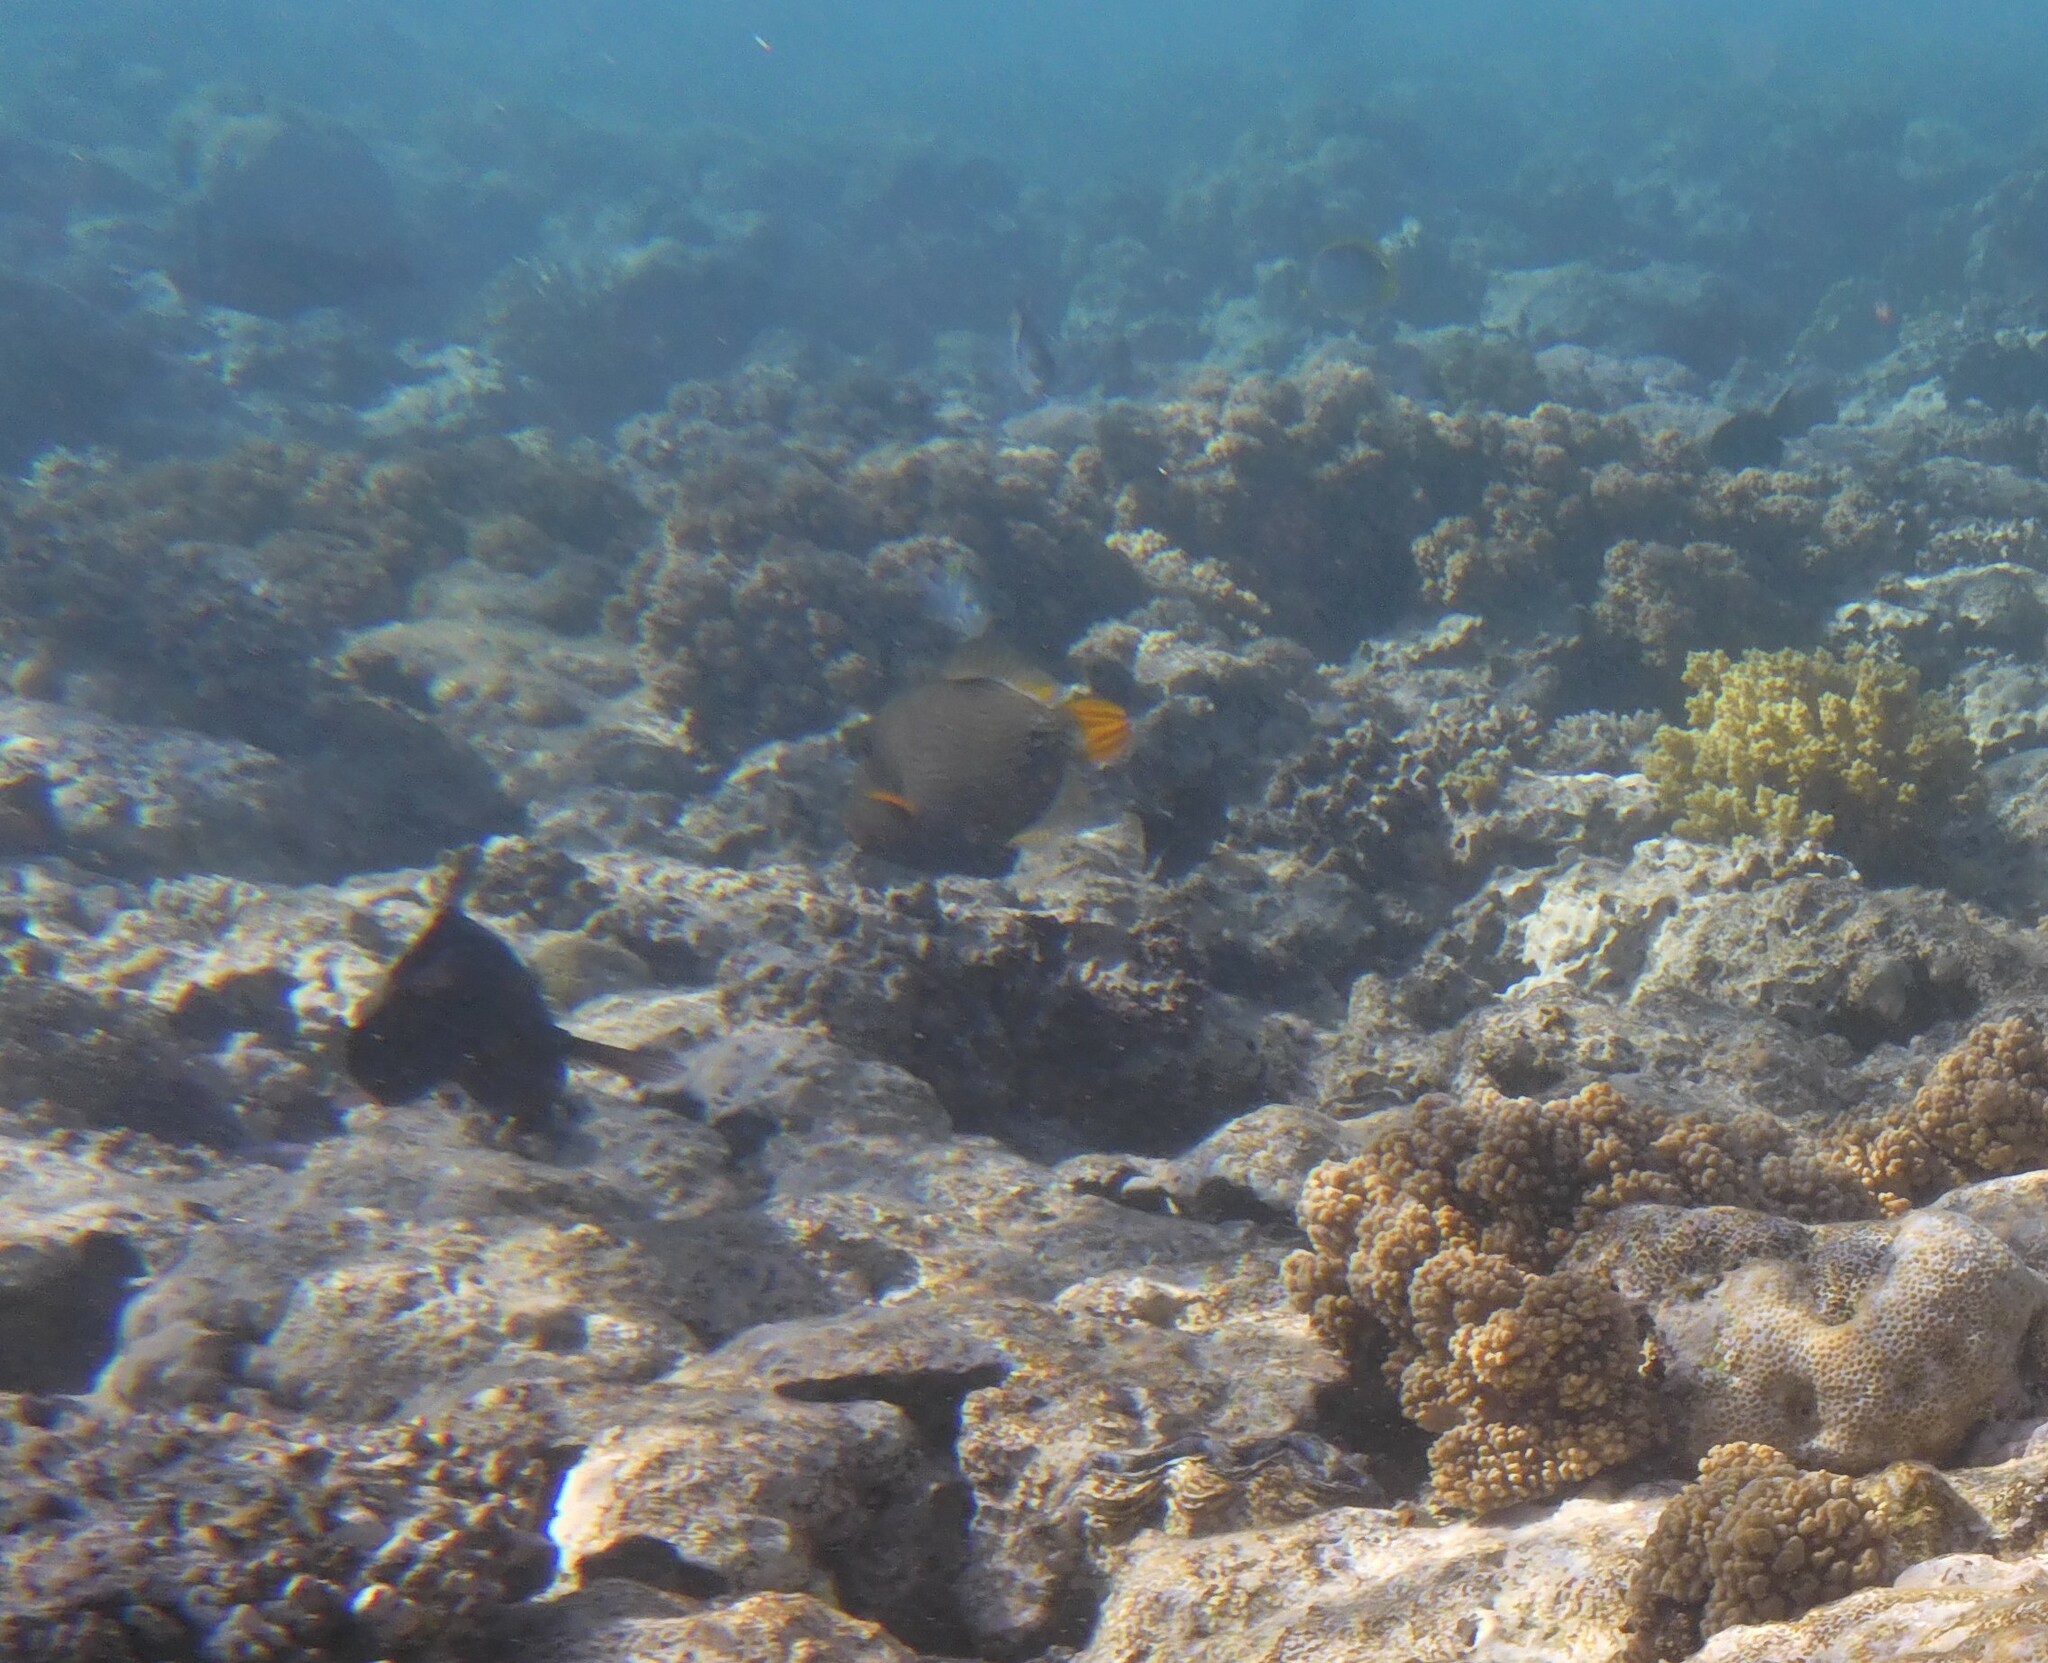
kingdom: Animalia
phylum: Chordata
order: Tetraodontiformes
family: Balistidae
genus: Balistapus
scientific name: Balistapus undulatus
